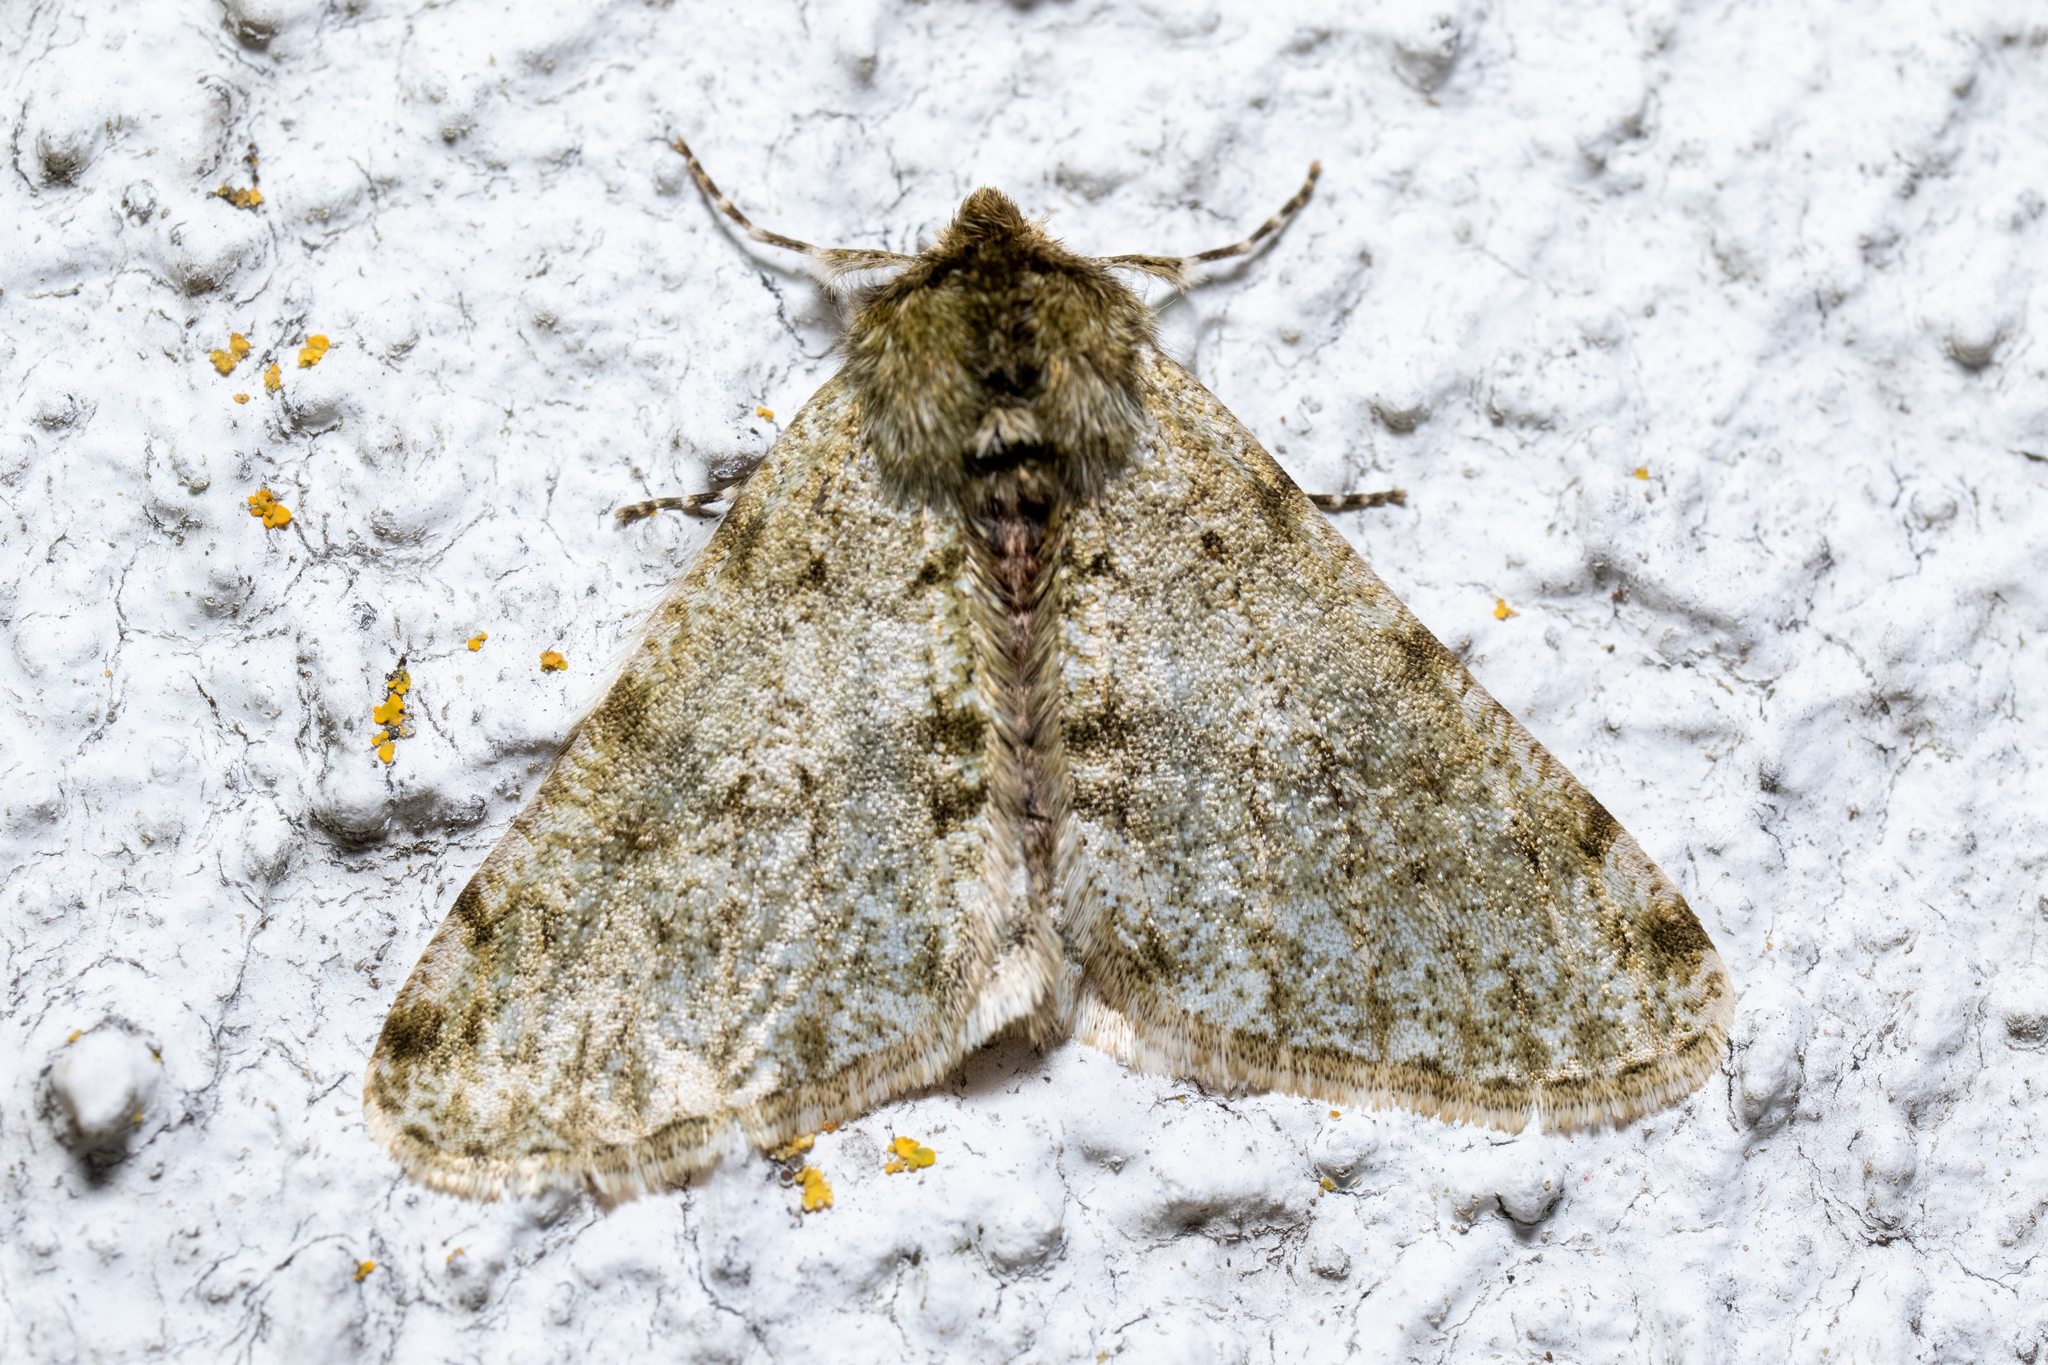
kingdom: Animalia
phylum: Arthropoda
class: Insecta
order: Lepidoptera
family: Geometridae
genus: Phigalia
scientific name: Phigalia pilosaria
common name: Pale brindled beauty
